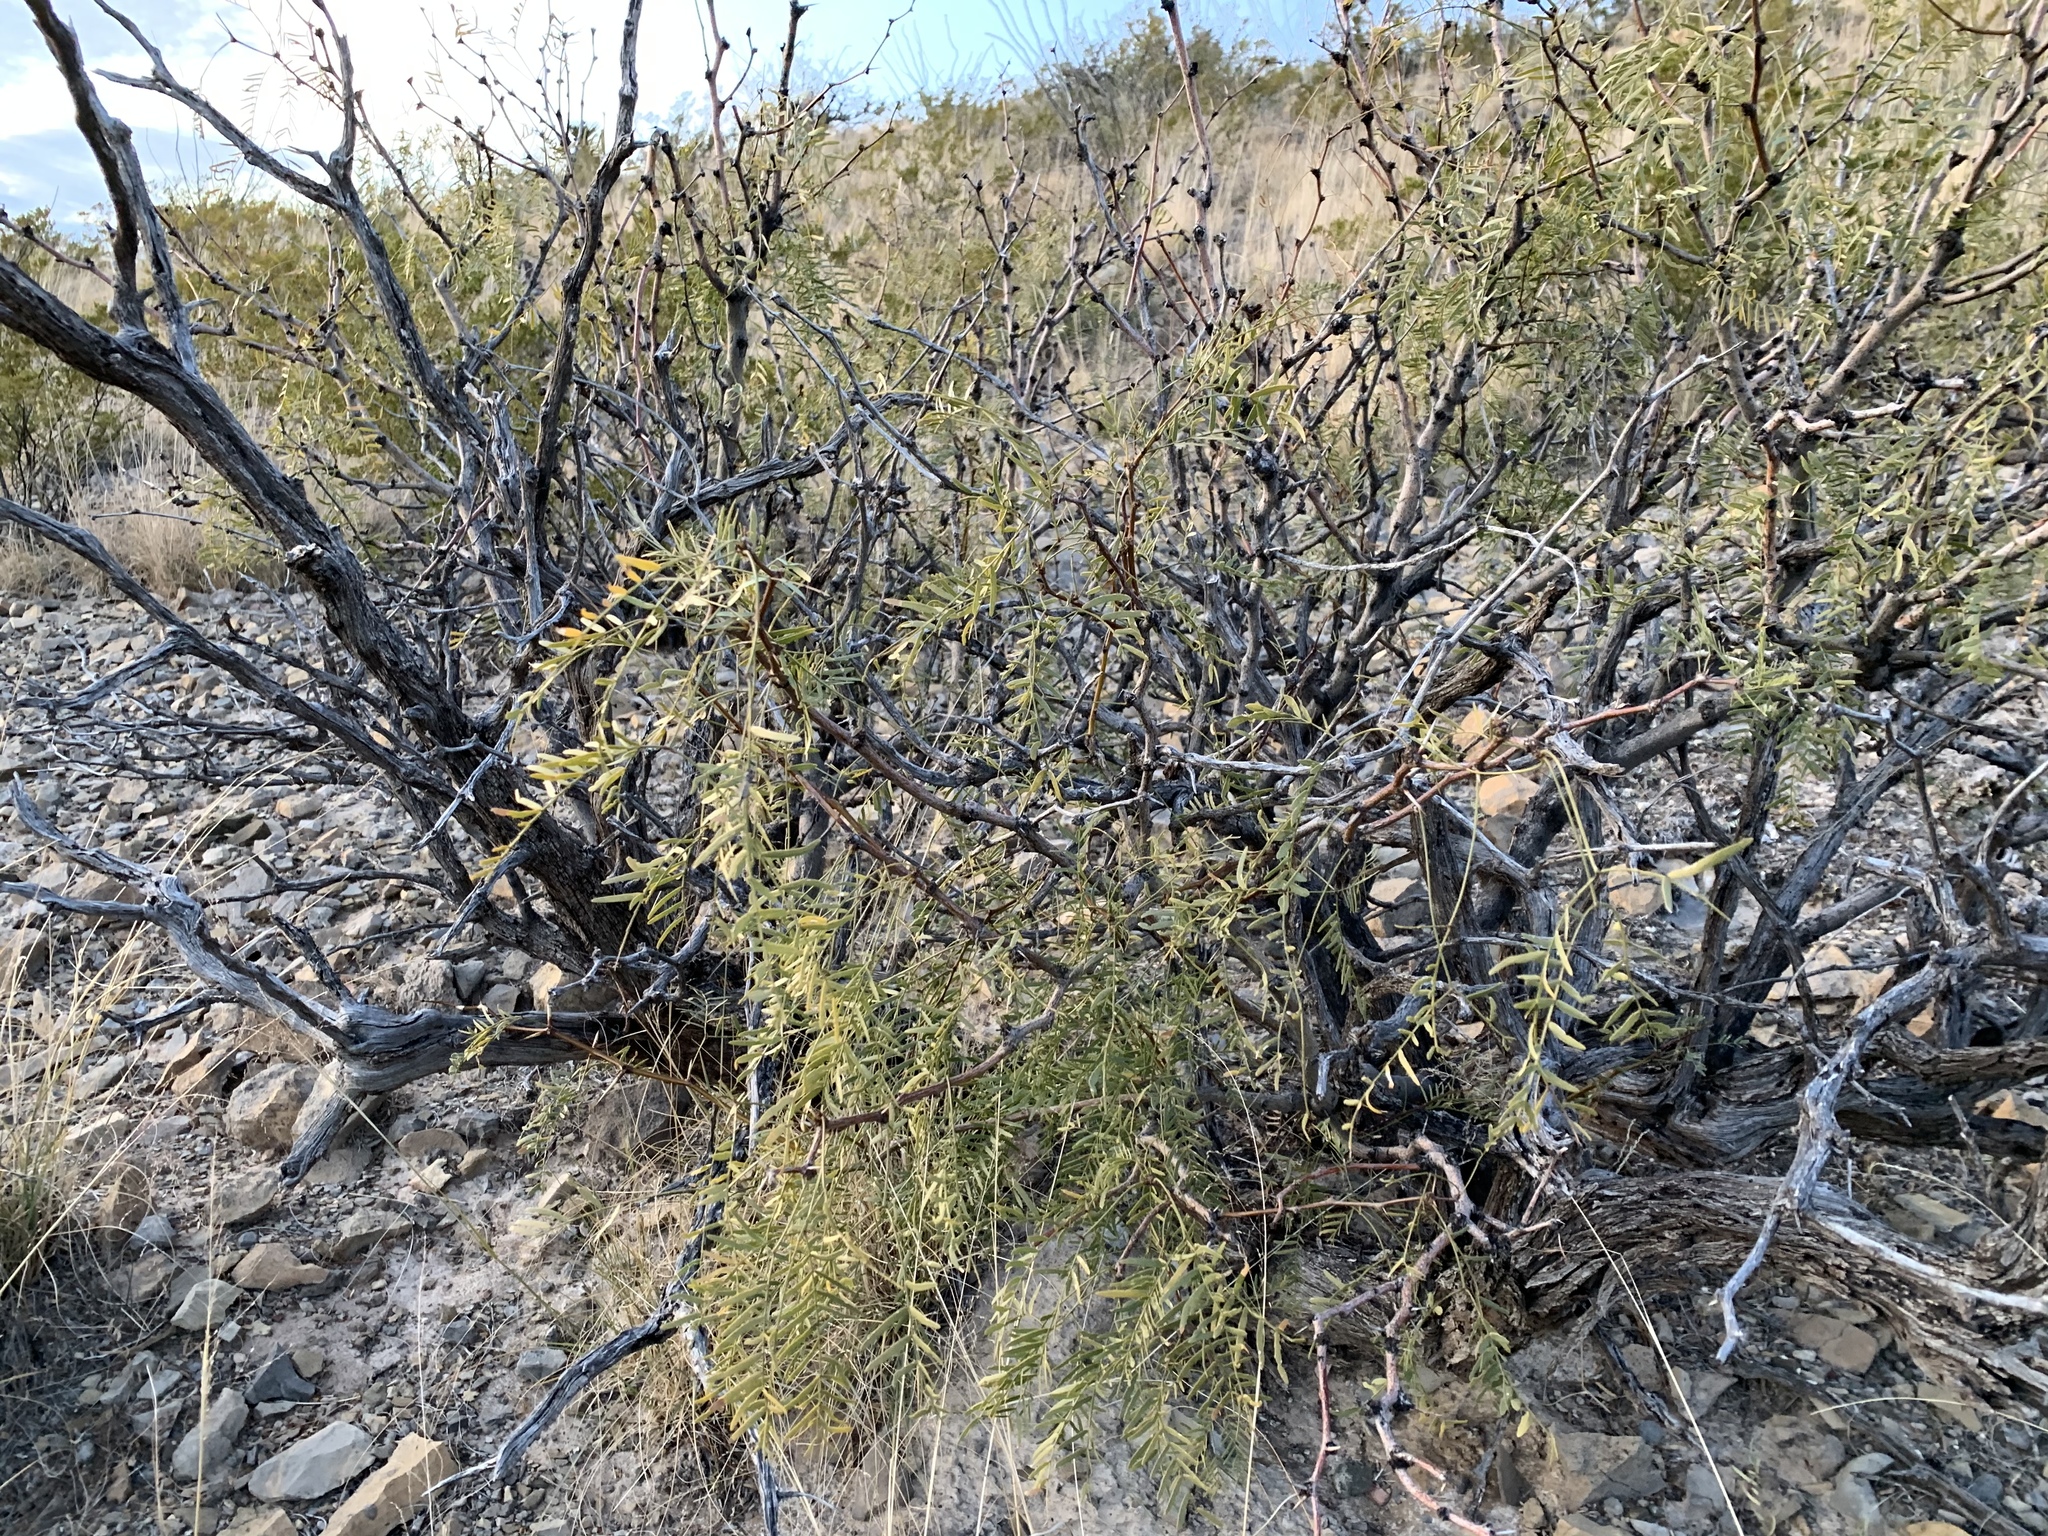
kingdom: Plantae
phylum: Tracheophyta
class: Magnoliopsida
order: Fabales
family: Fabaceae
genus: Prosopis
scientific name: Prosopis glandulosa
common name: Honey mesquite
